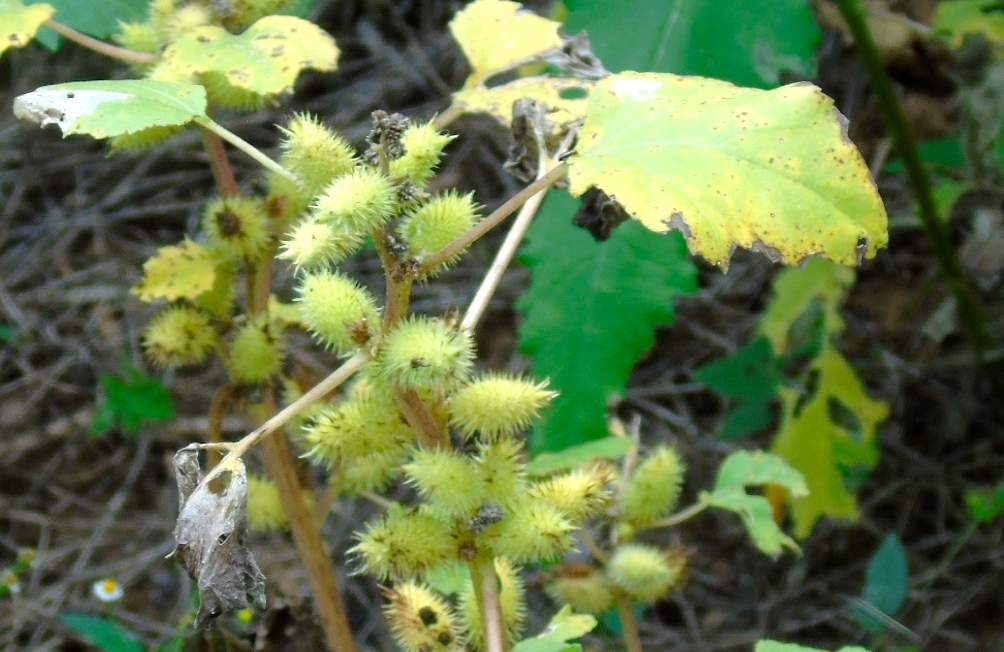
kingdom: Plantae
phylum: Tracheophyta
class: Magnoliopsida
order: Asterales
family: Asteraceae
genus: Xanthium
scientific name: Xanthium strumarium
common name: Rough cocklebur
